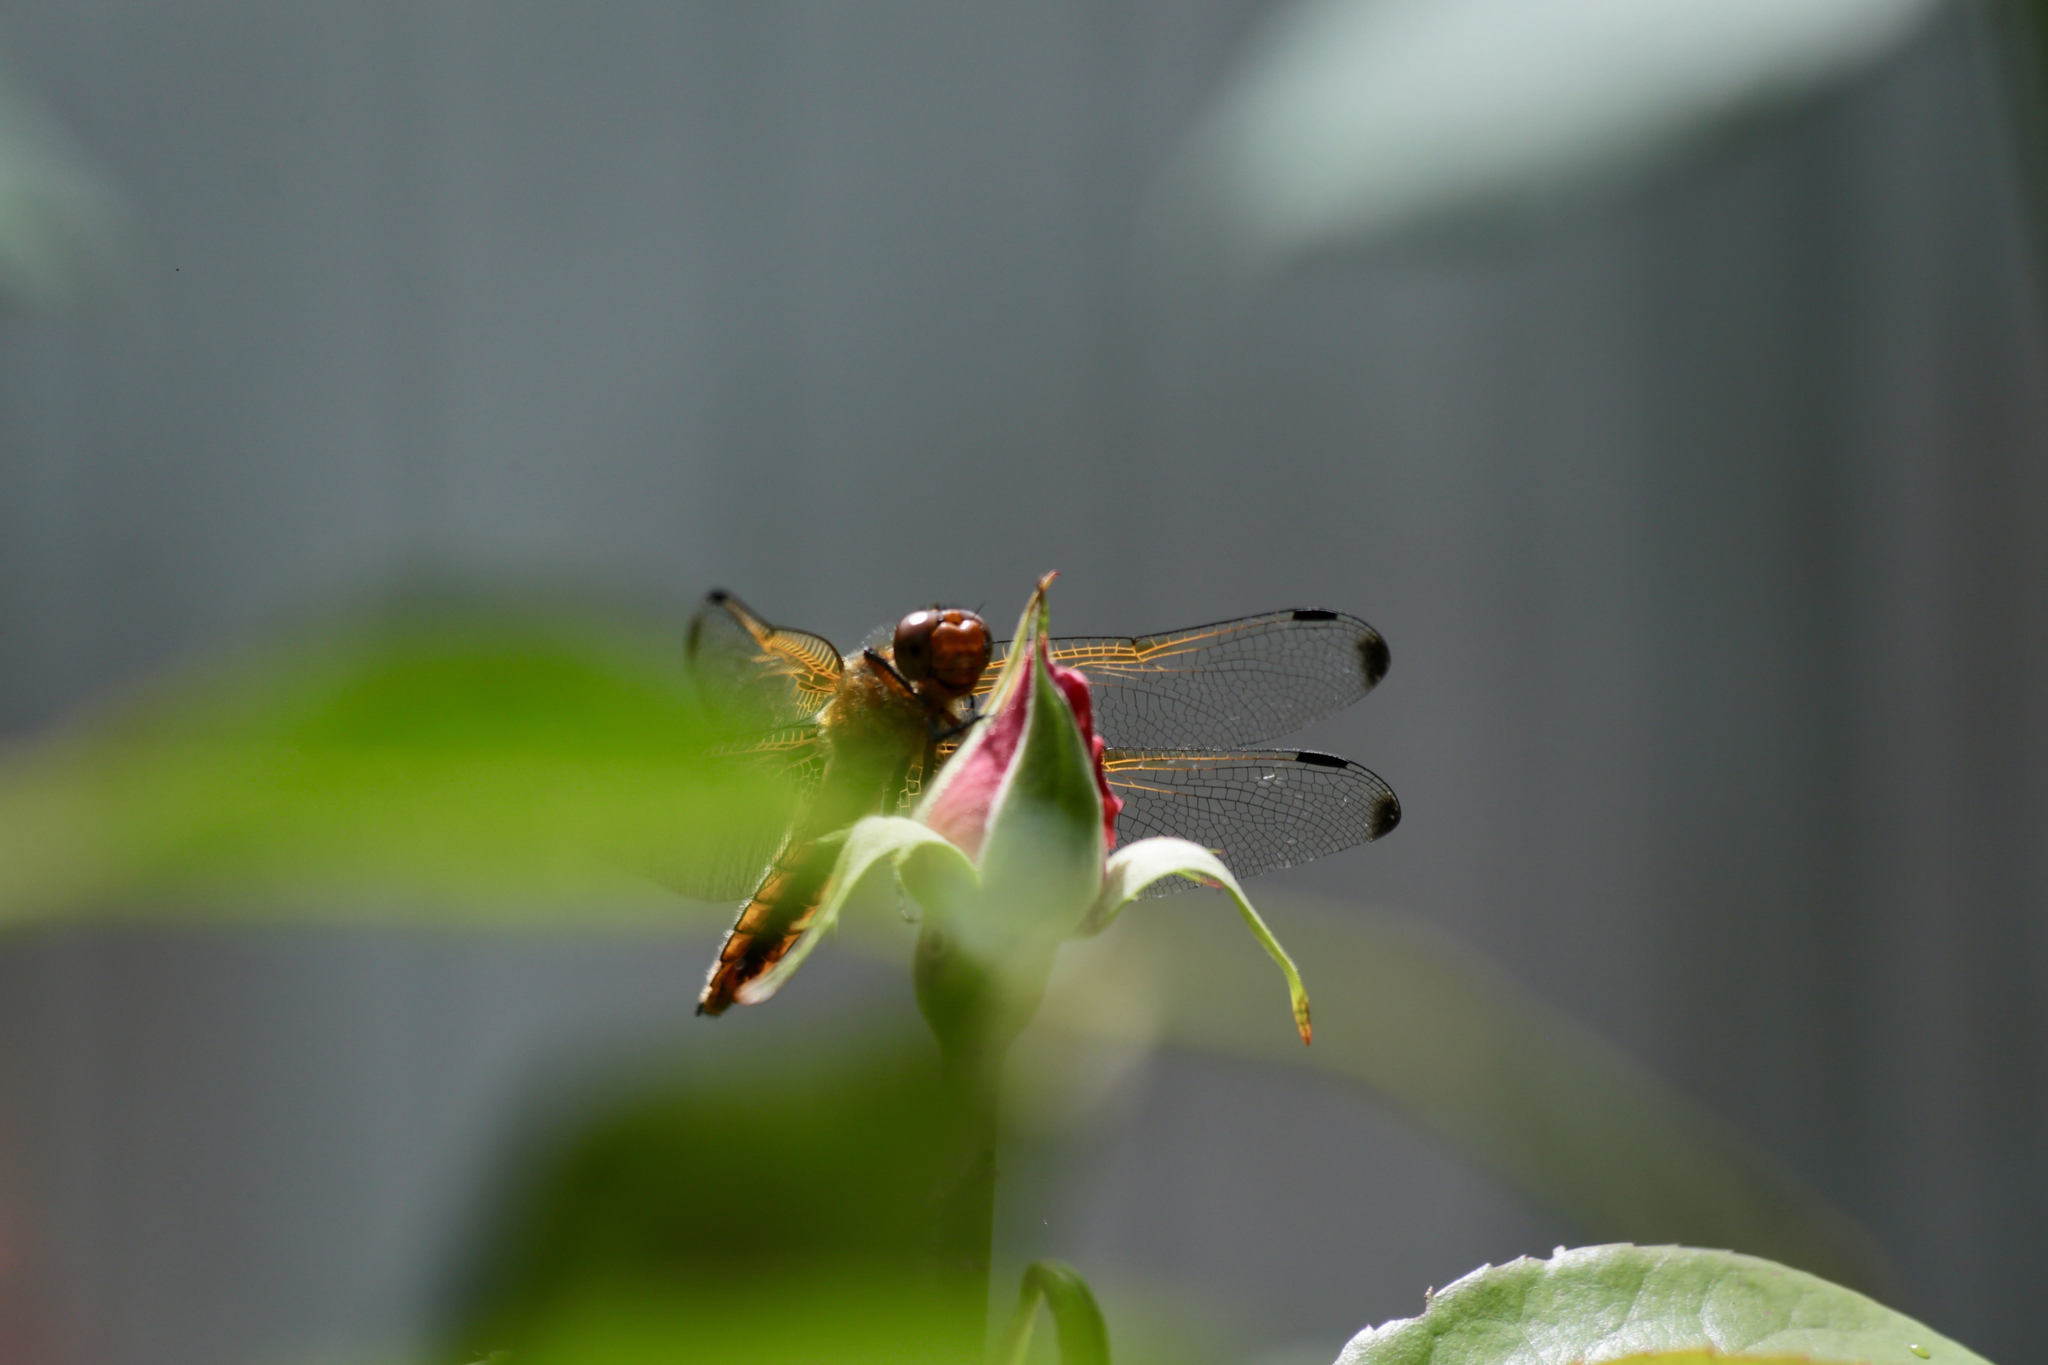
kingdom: Animalia
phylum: Arthropoda
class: Insecta
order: Odonata
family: Libellulidae
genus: Libellula
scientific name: Libellula fulva
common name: Blue chaser
